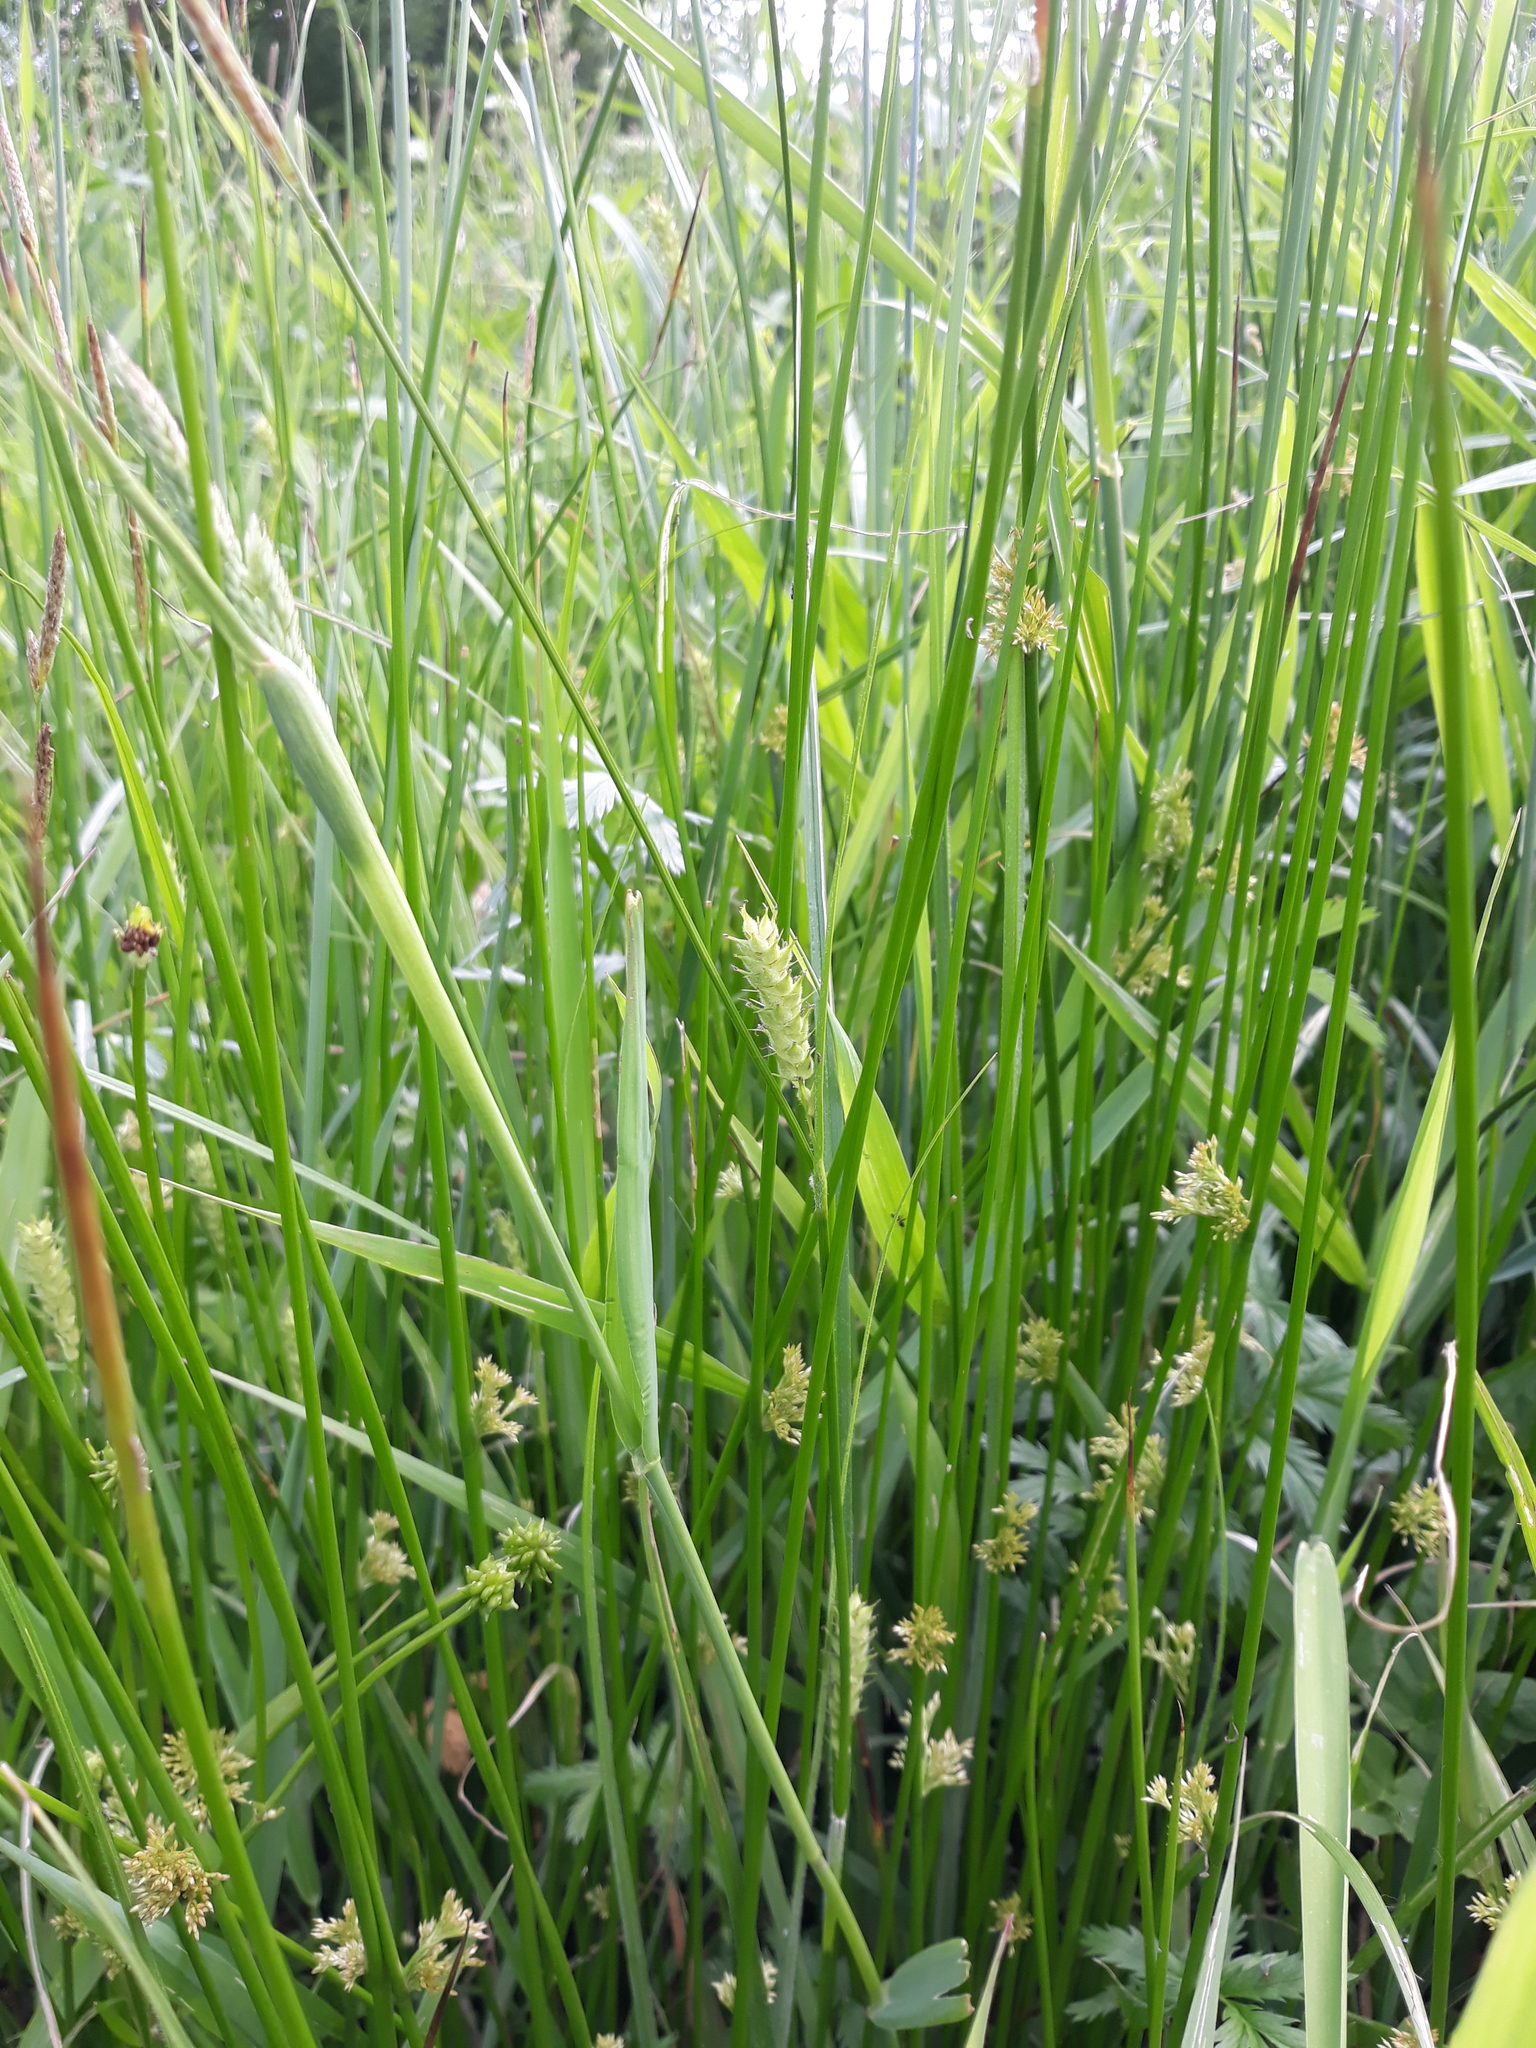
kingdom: Plantae
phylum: Tracheophyta
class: Liliopsida
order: Poales
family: Cyperaceae
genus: Carex
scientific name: Carex hirta
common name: Hairy sedge
